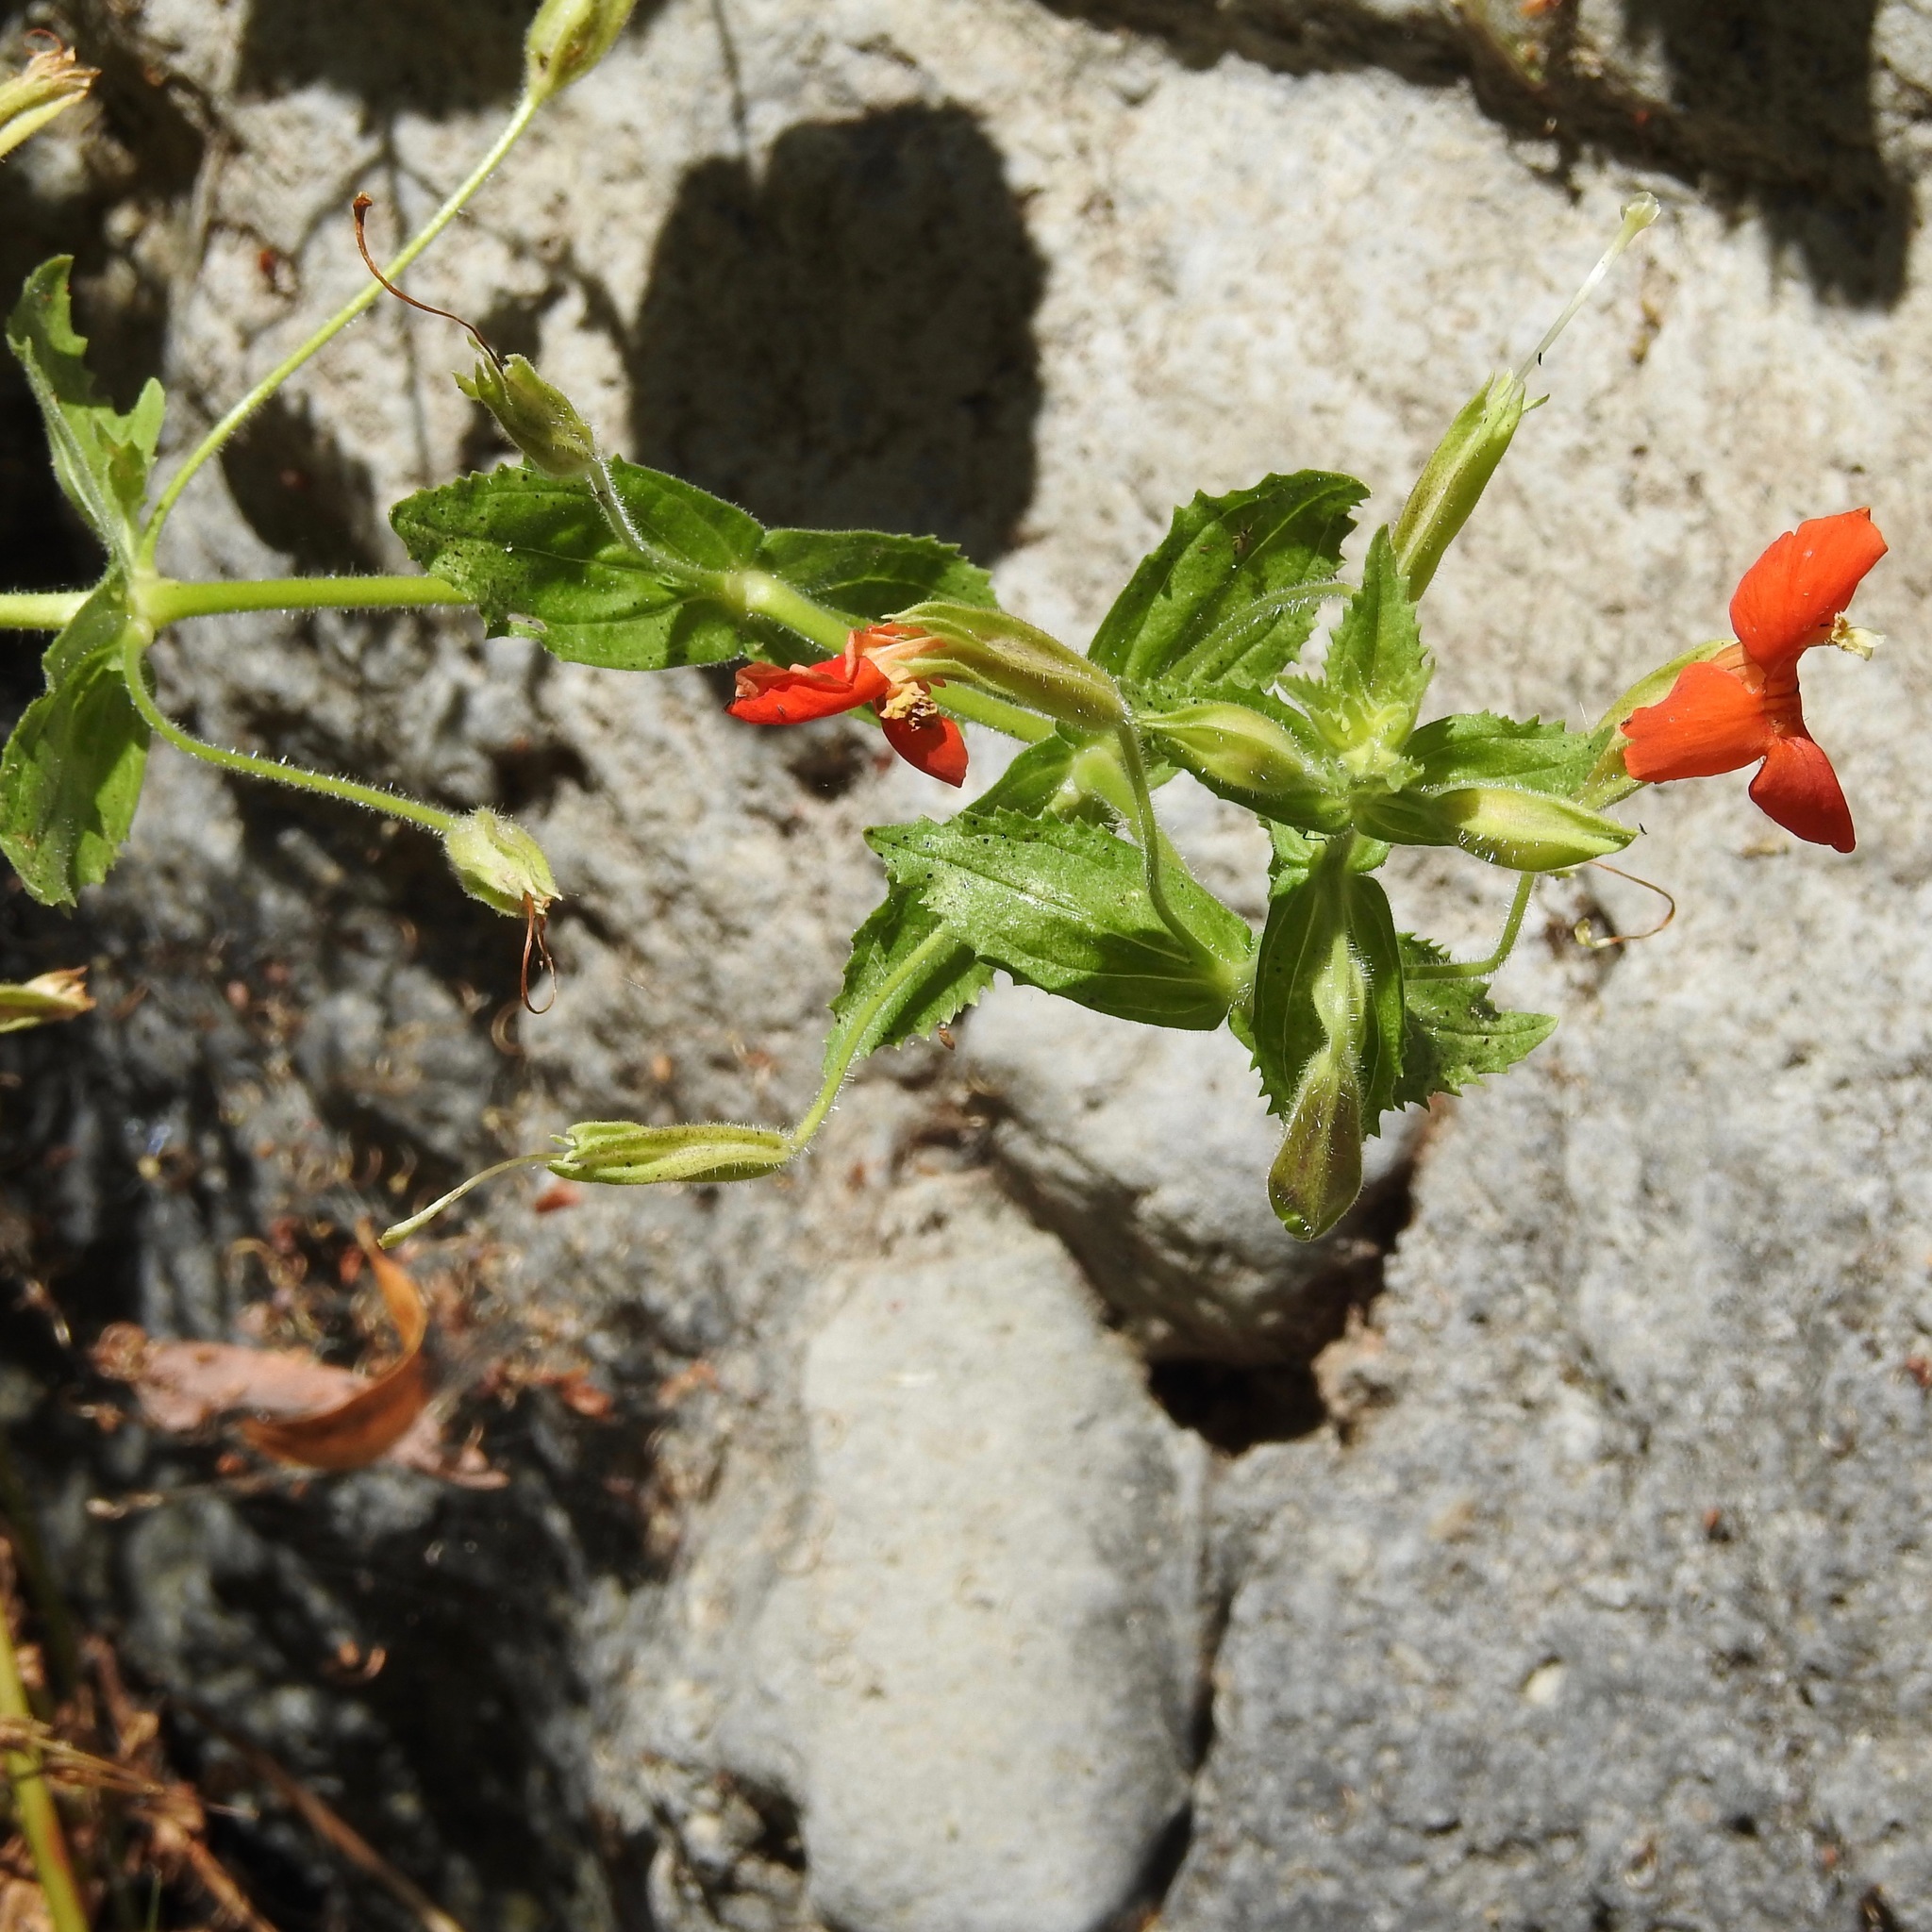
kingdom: Plantae
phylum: Tracheophyta
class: Magnoliopsida
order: Lamiales
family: Phrymaceae
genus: Erythranthe
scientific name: Erythranthe cardinalis
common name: Scarlet monkey-flower
